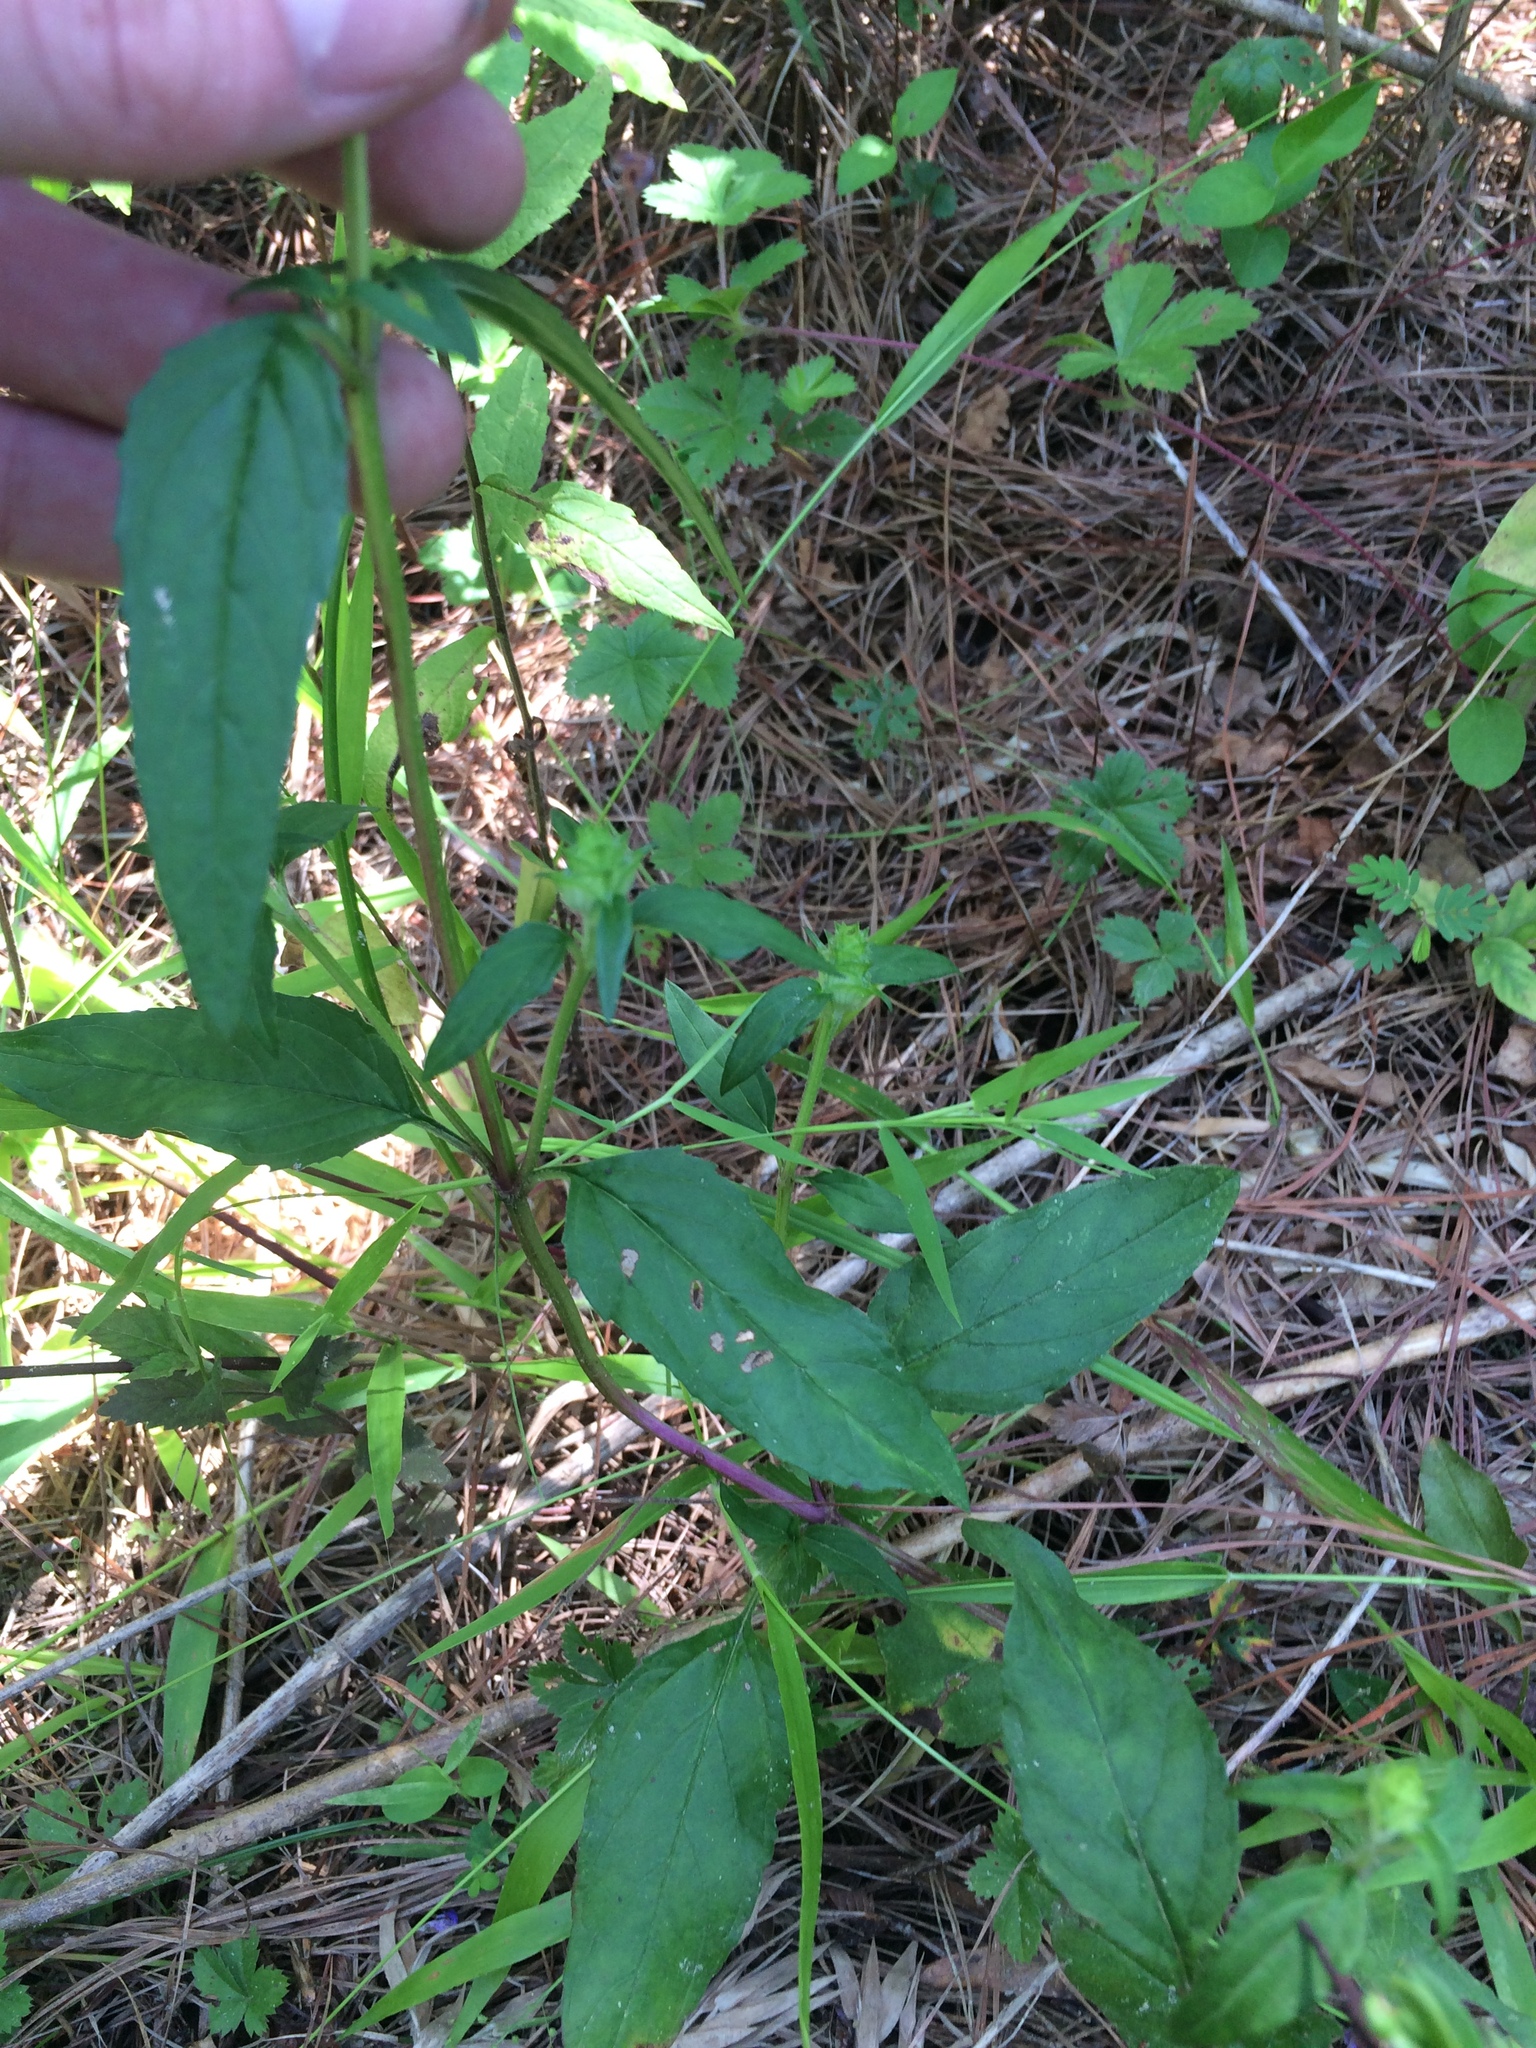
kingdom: Plantae
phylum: Tracheophyta
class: Magnoliopsida
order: Lamiales
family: Lamiaceae
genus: Prunella
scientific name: Prunella vulgaris
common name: Heal-all
